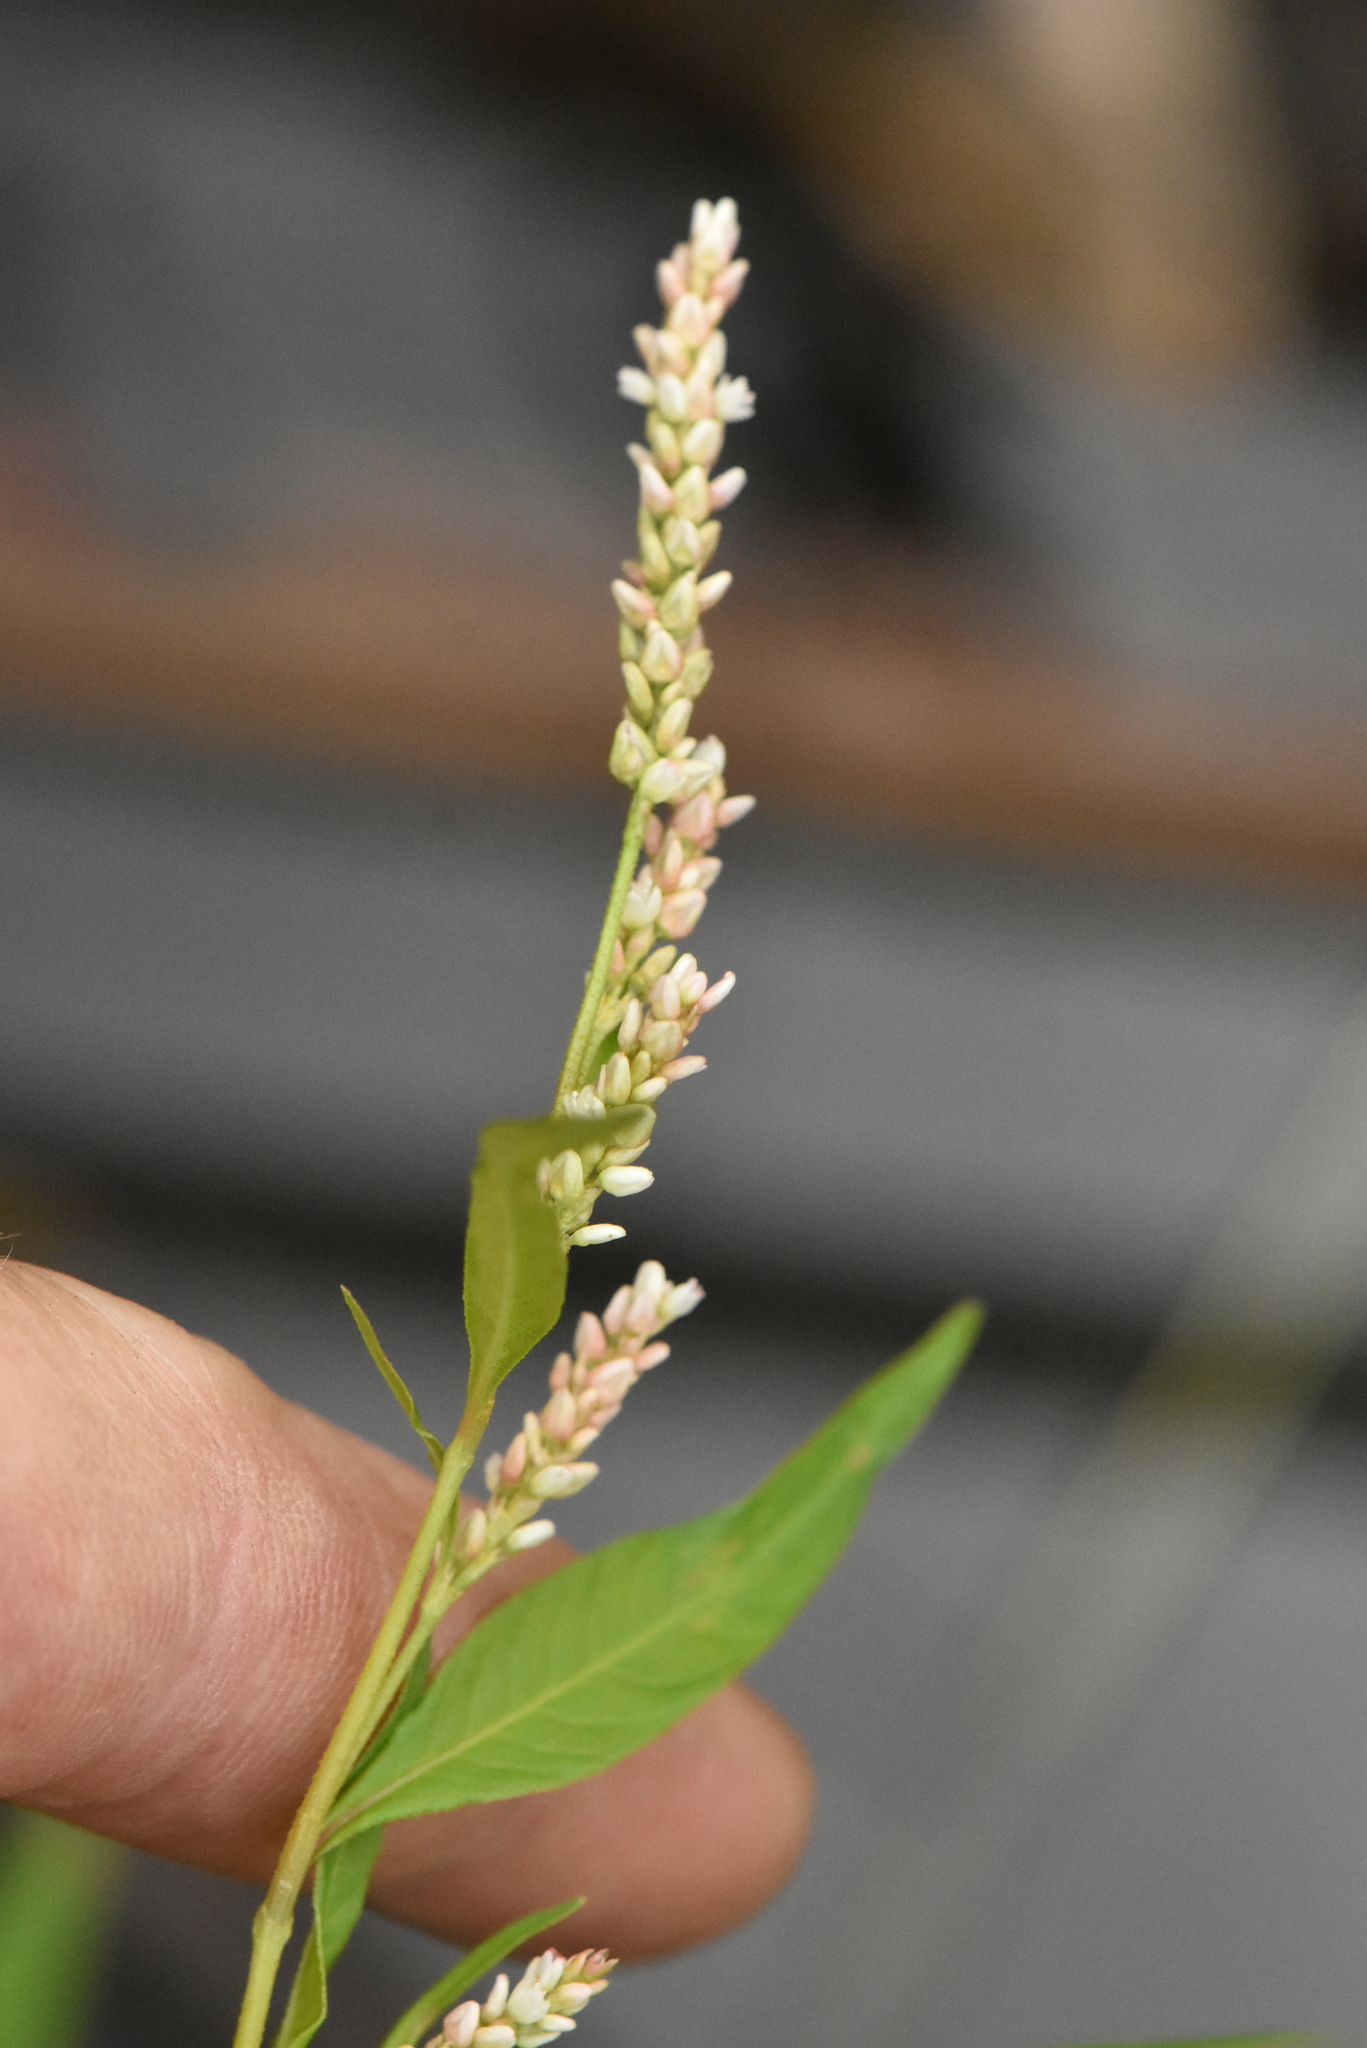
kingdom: Plantae
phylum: Tracheophyta
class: Magnoliopsida
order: Caryophyllales
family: Polygonaceae
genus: Persicaria
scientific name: Persicaria lapathifolia
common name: Curlytop knotweed
